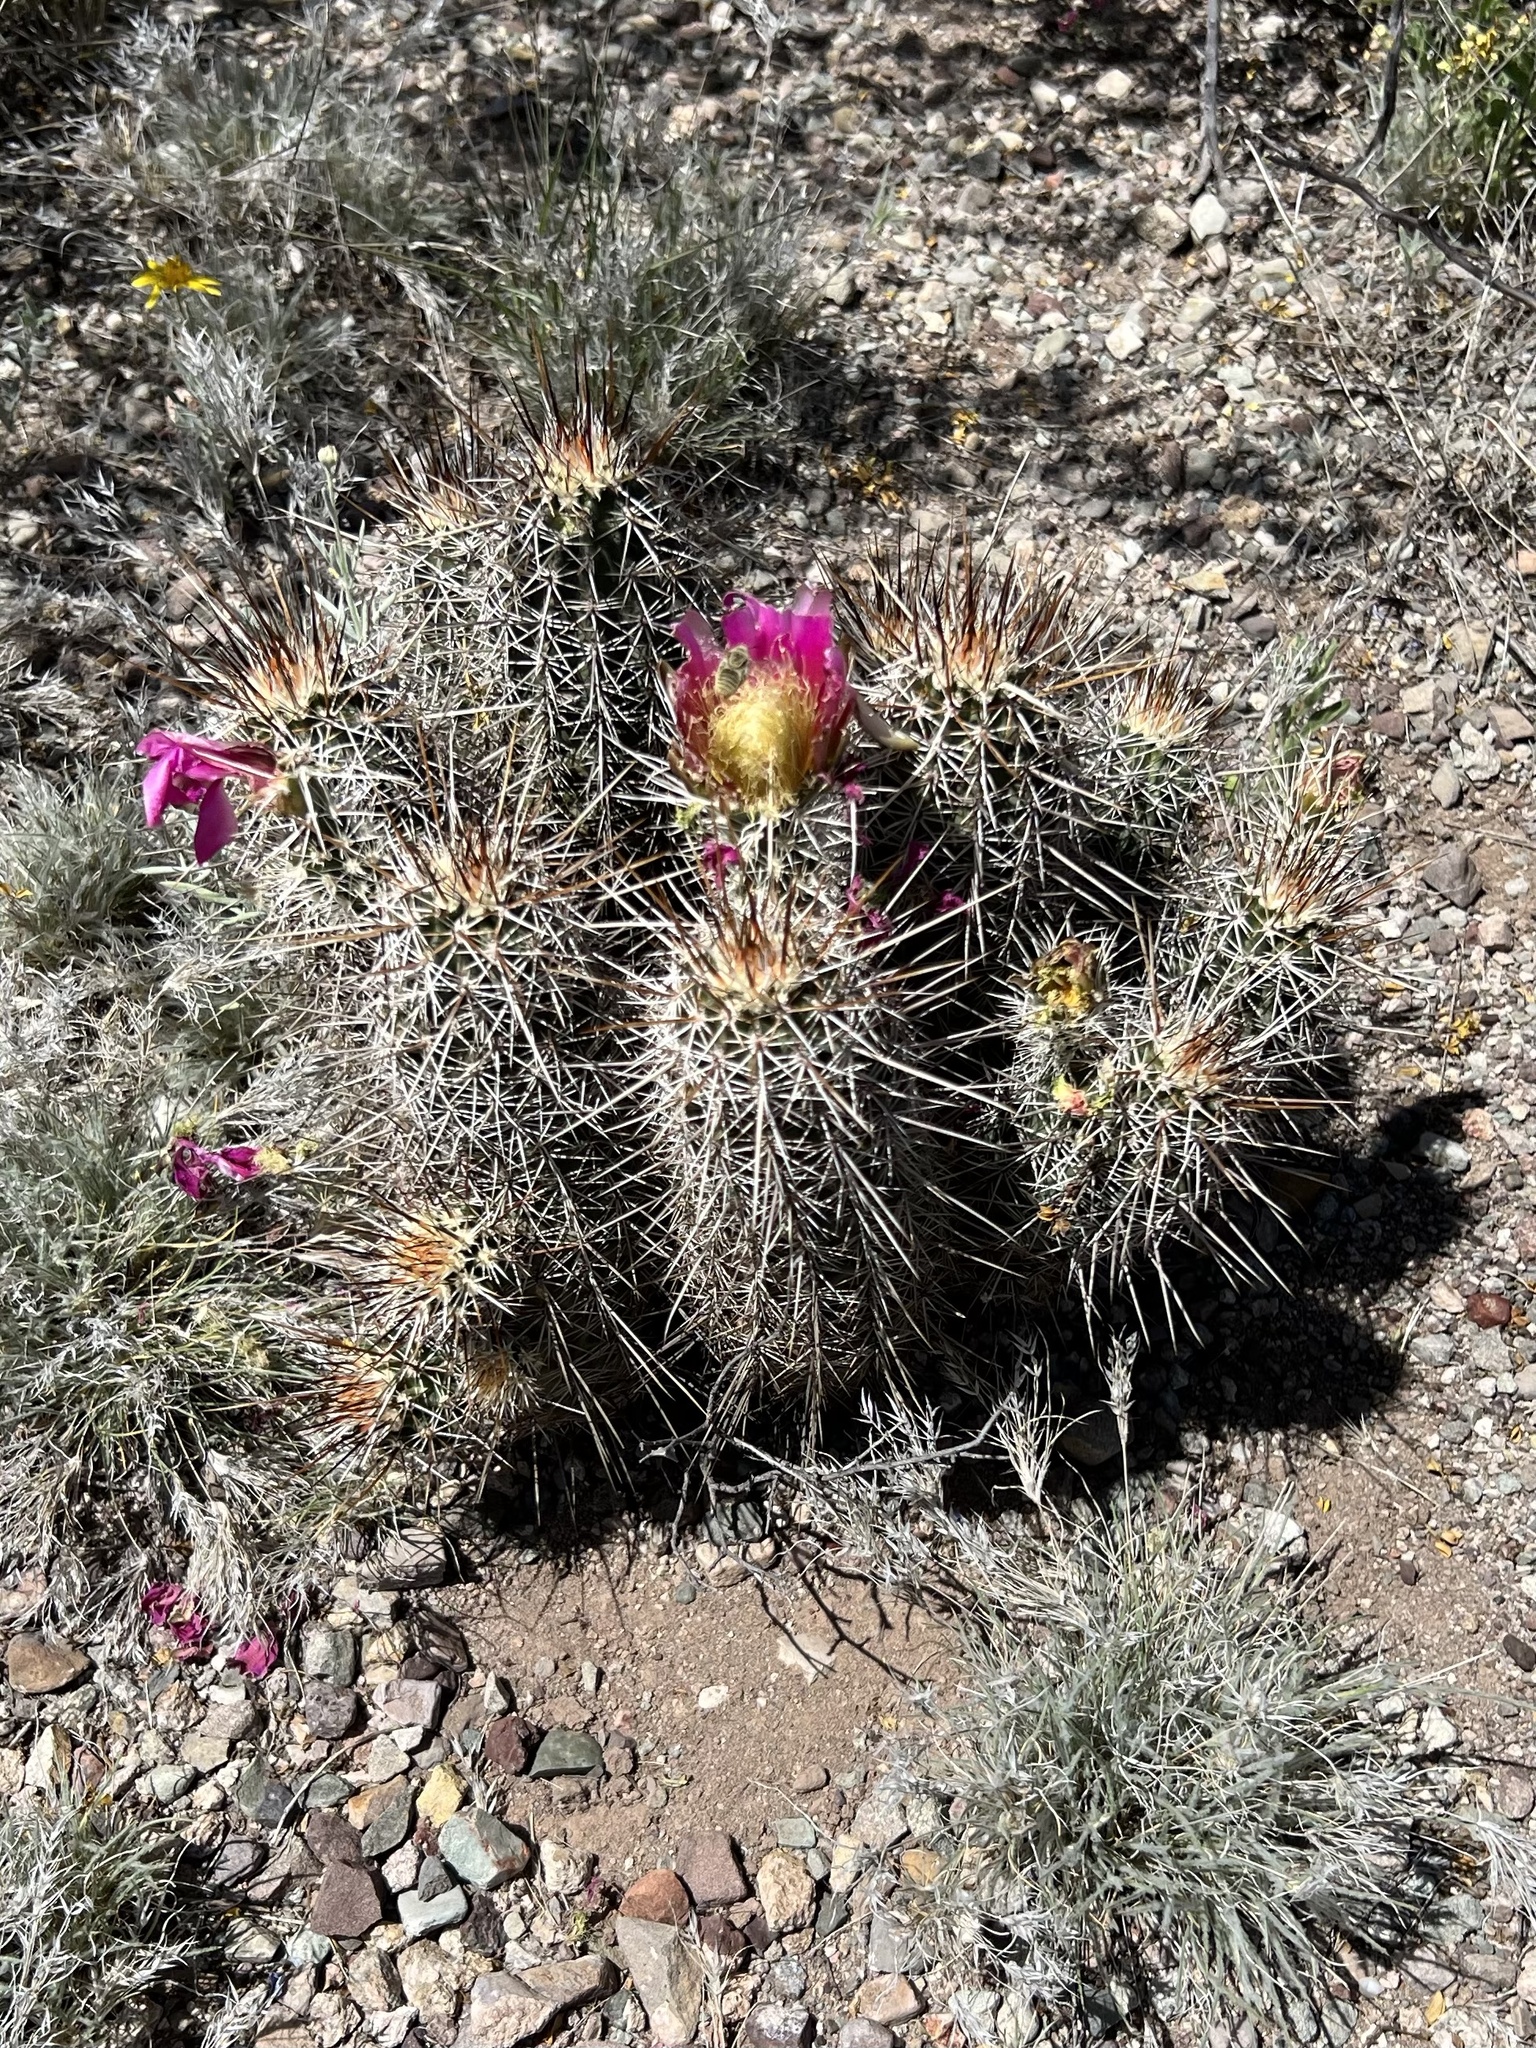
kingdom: Plantae
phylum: Tracheophyta
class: Magnoliopsida
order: Caryophyllales
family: Cactaceae
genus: Echinocereus
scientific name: Echinocereus fasciculatus
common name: Bundle hedgehog
